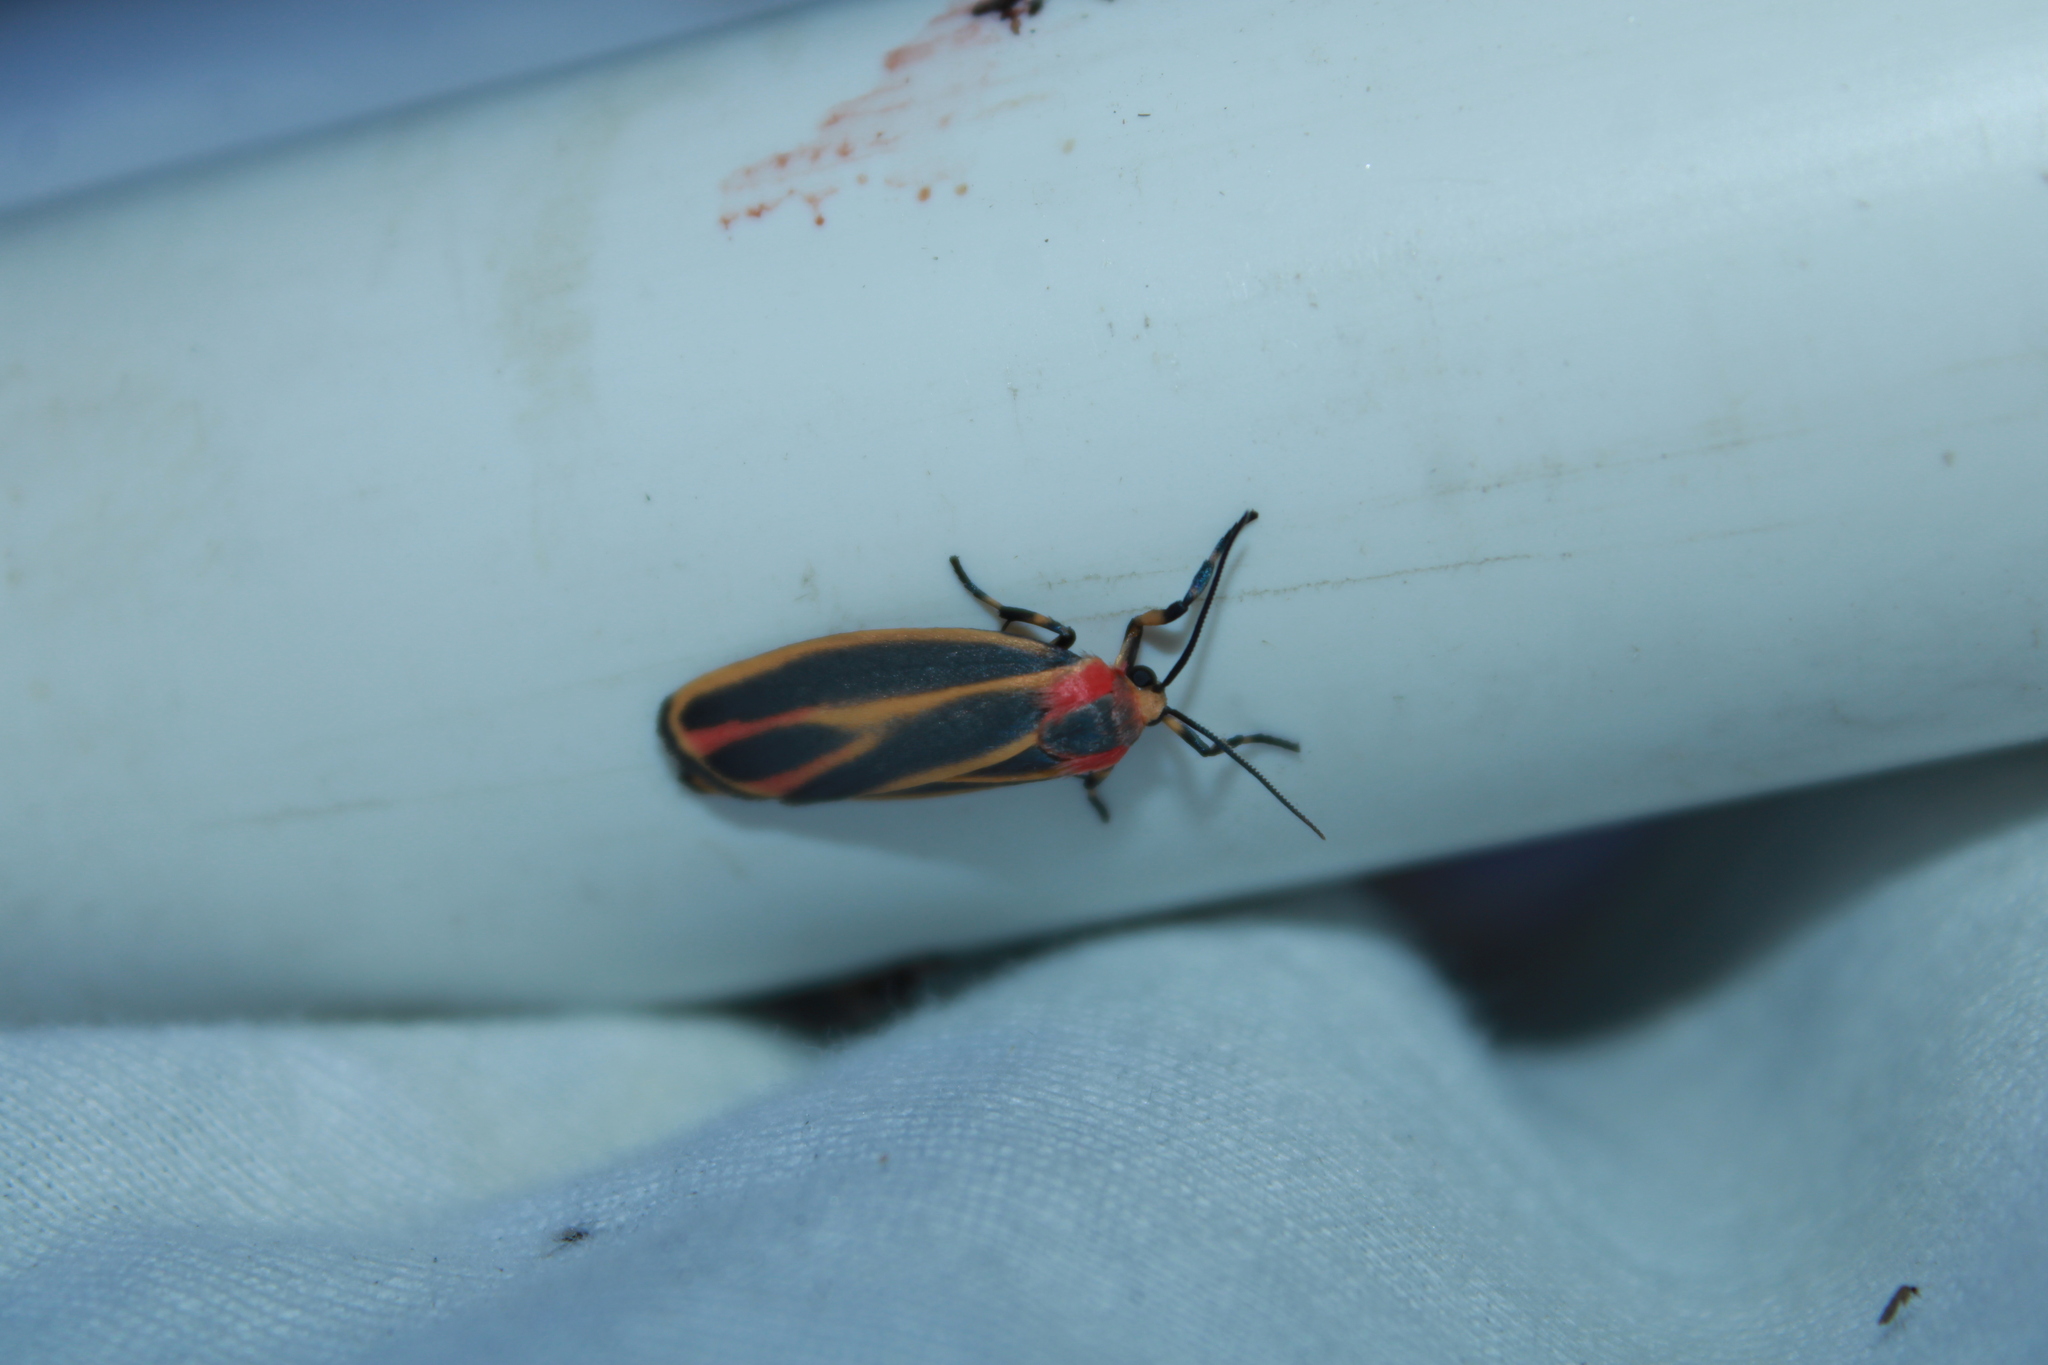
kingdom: Animalia
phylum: Arthropoda
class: Insecta
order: Lepidoptera
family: Erebidae
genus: Hypoprepia
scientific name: Hypoprepia fucosa
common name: Painted lichen moth
